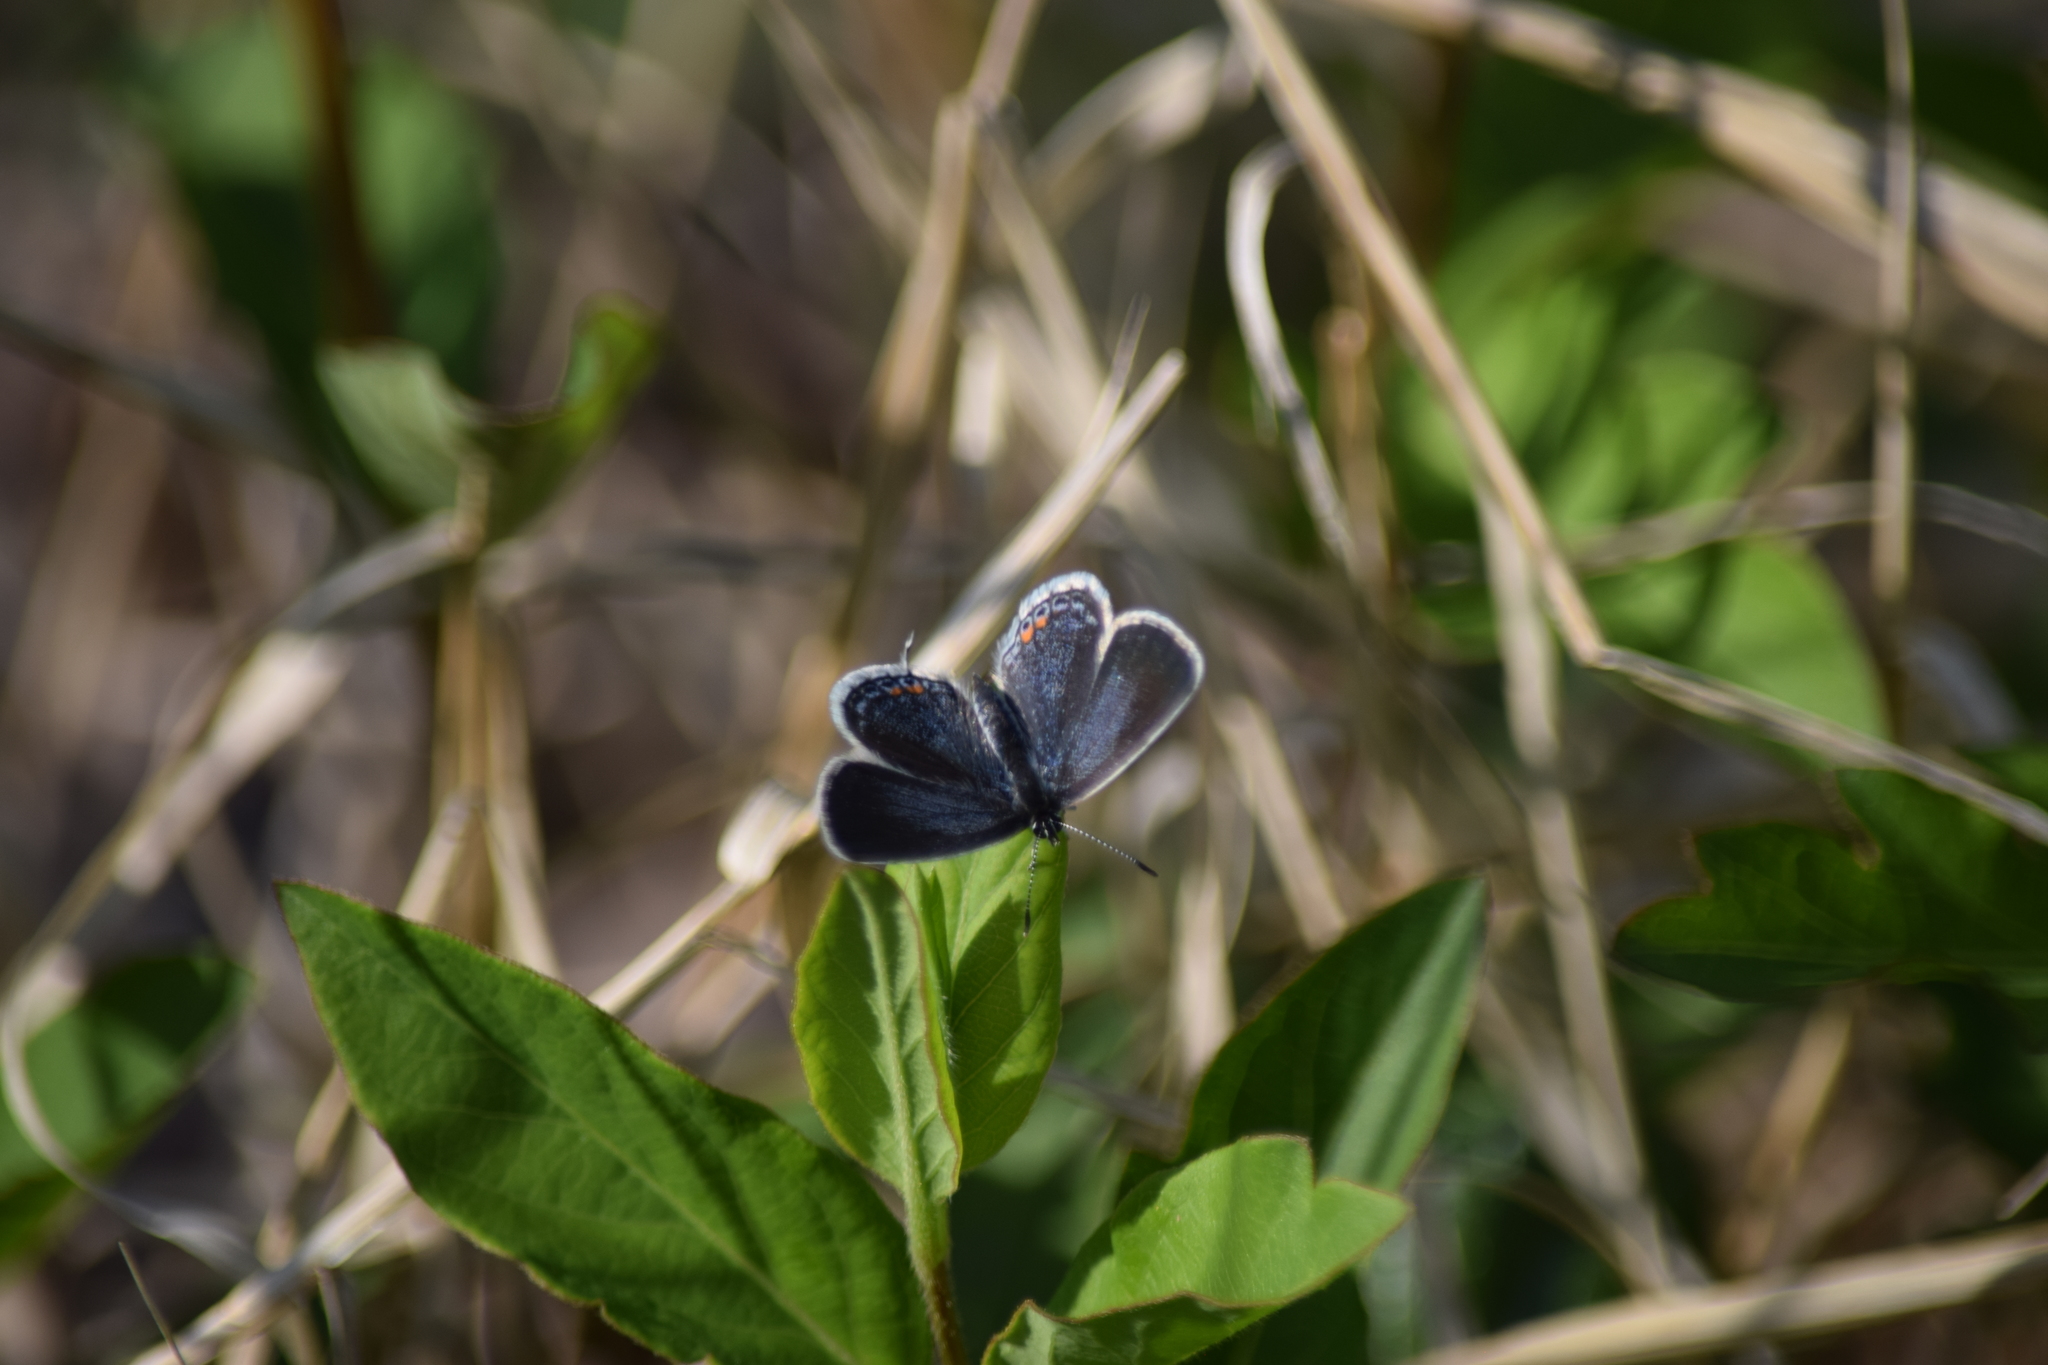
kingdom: Animalia
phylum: Arthropoda
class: Insecta
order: Lepidoptera
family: Lycaenidae
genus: Elkalyce
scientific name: Elkalyce comyntas
